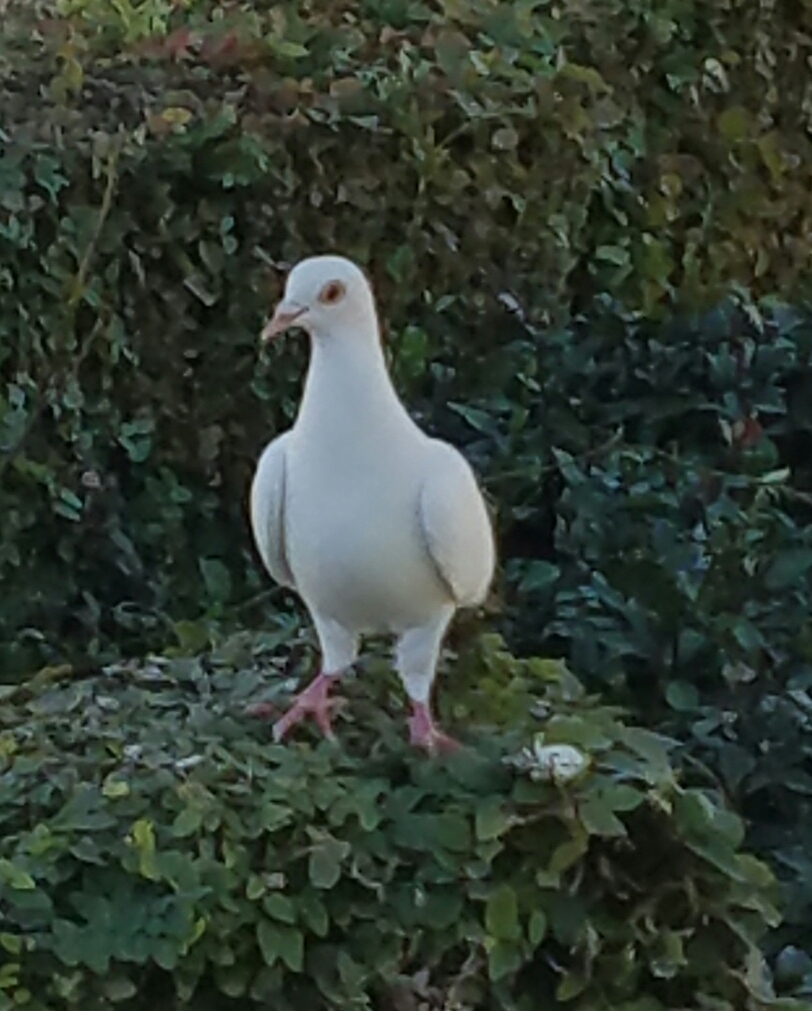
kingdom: Animalia
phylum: Chordata
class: Aves
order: Columbiformes
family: Columbidae
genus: Columba
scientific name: Columba livia
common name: Rock pigeon
